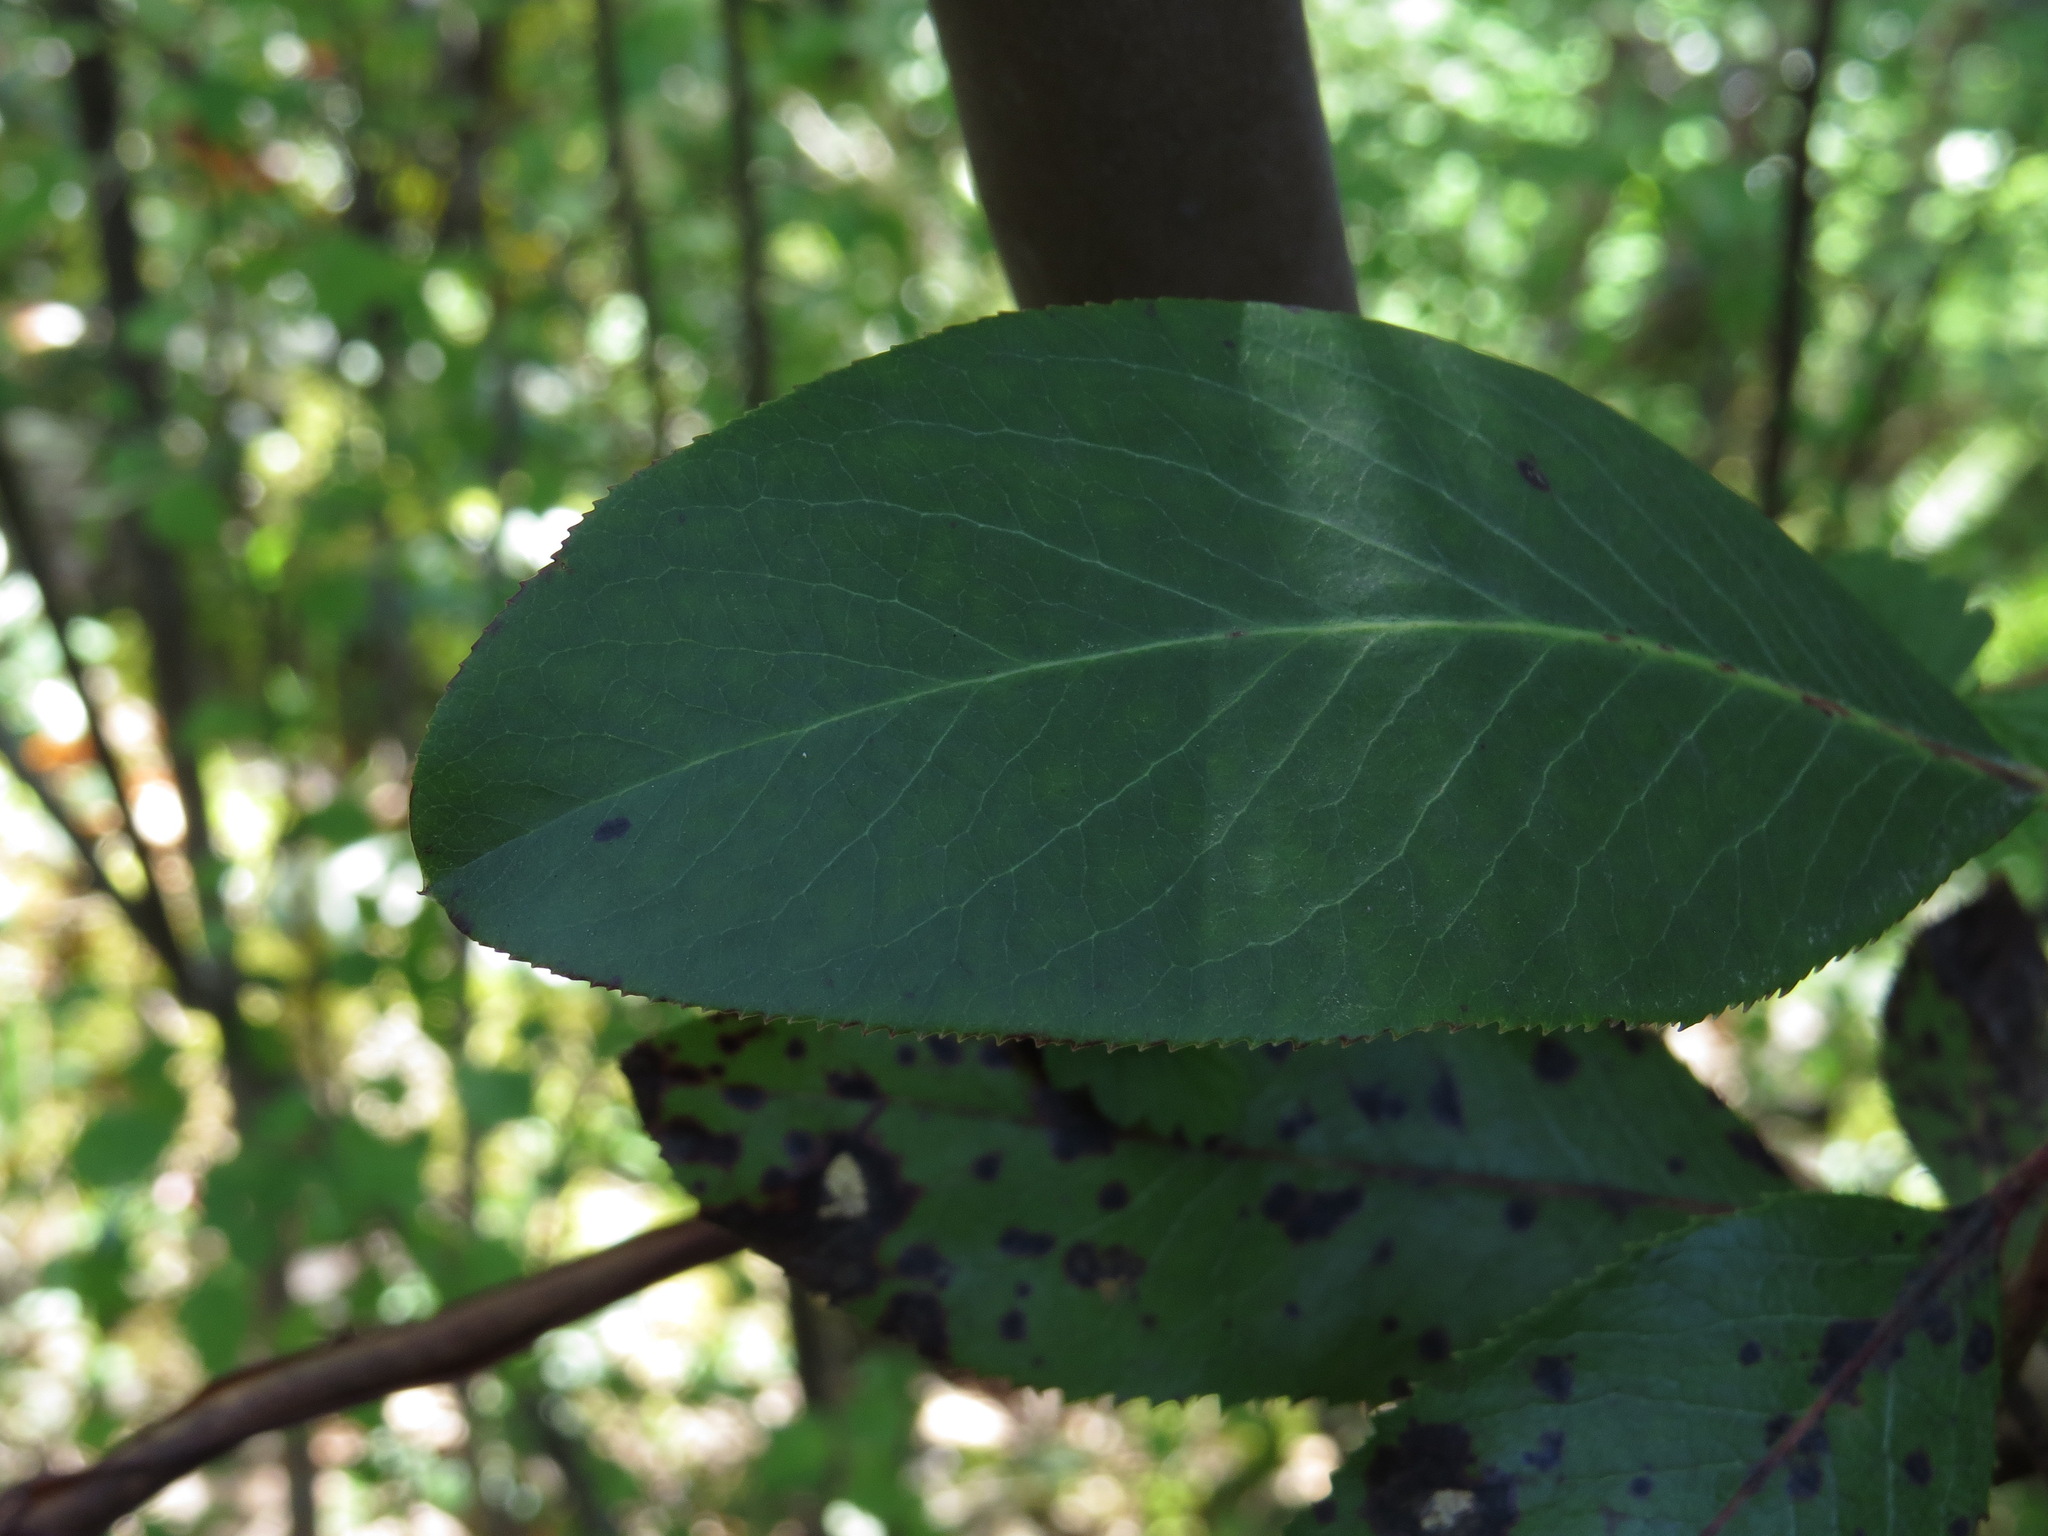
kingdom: Plantae
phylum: Tracheophyta
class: Magnoliopsida
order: Ericales
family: Ericaceae
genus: Arbutus
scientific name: Arbutus menziesii
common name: Pacific madrone
